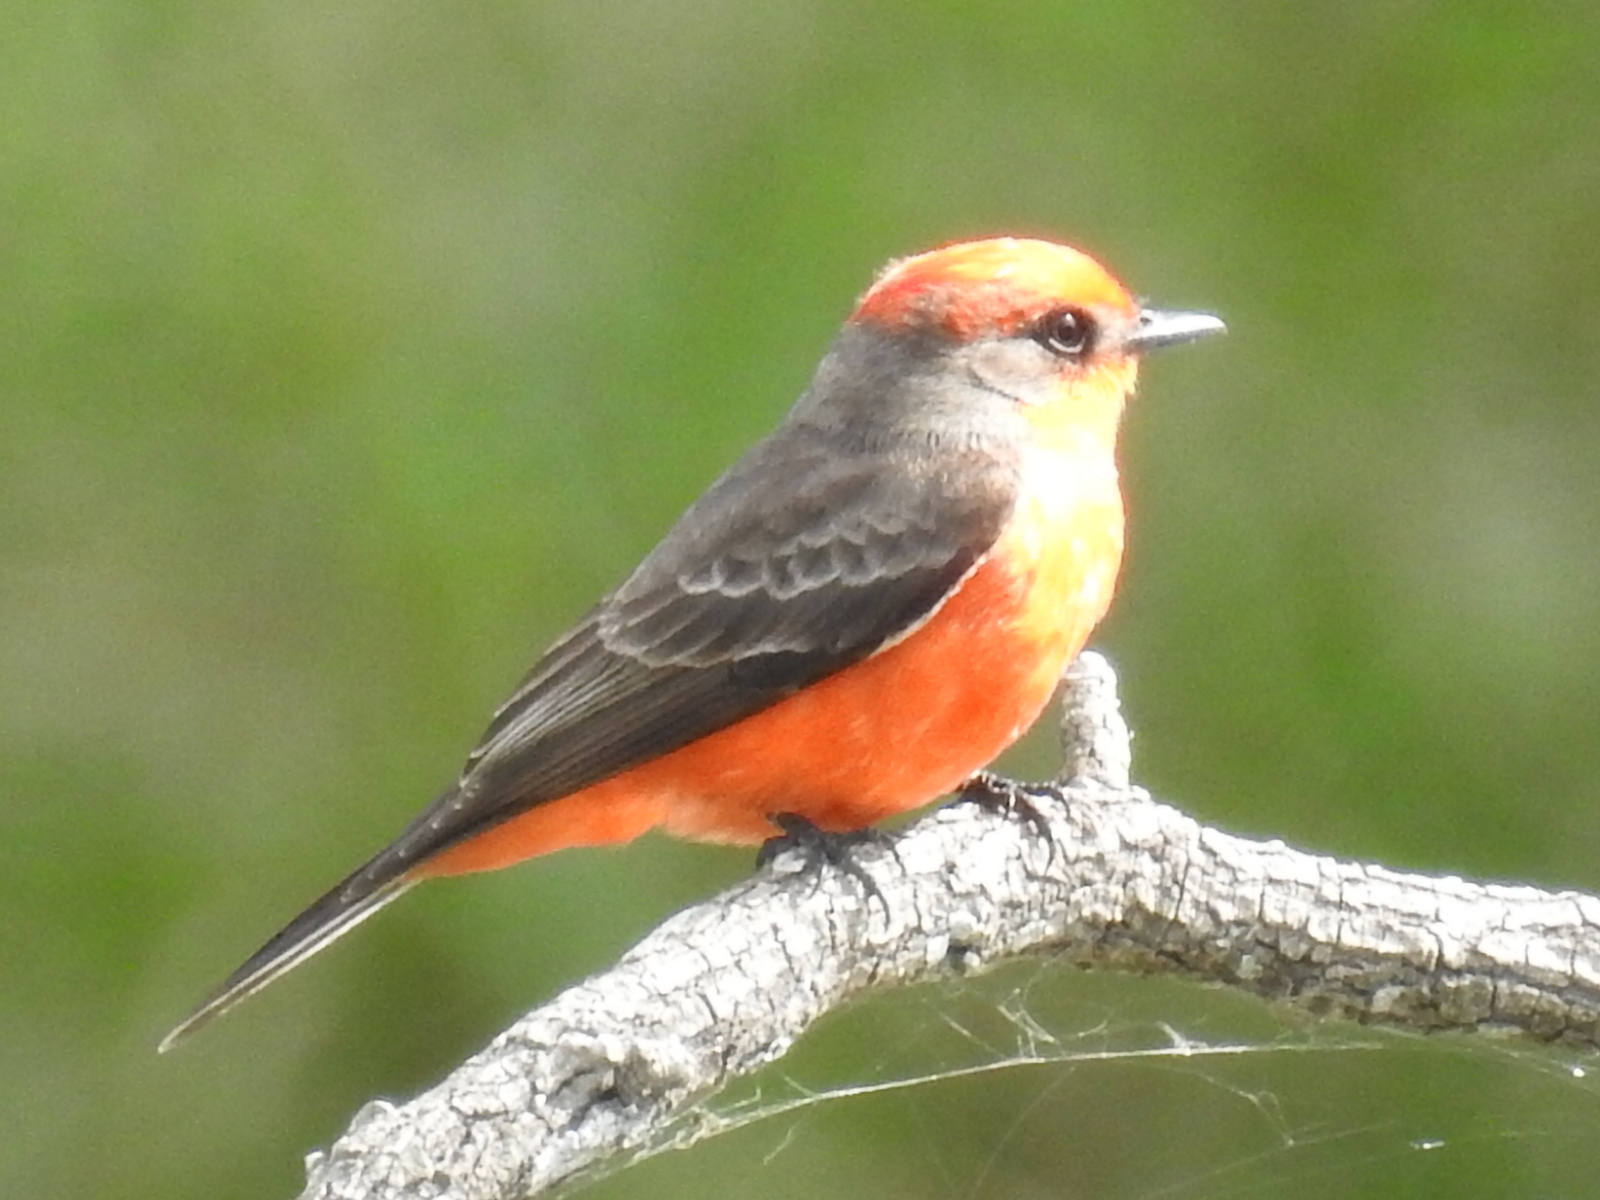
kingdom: Animalia
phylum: Chordata
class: Aves
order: Passeriformes
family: Tyrannidae
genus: Pyrocephalus
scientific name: Pyrocephalus rubinus
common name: Vermilion flycatcher
